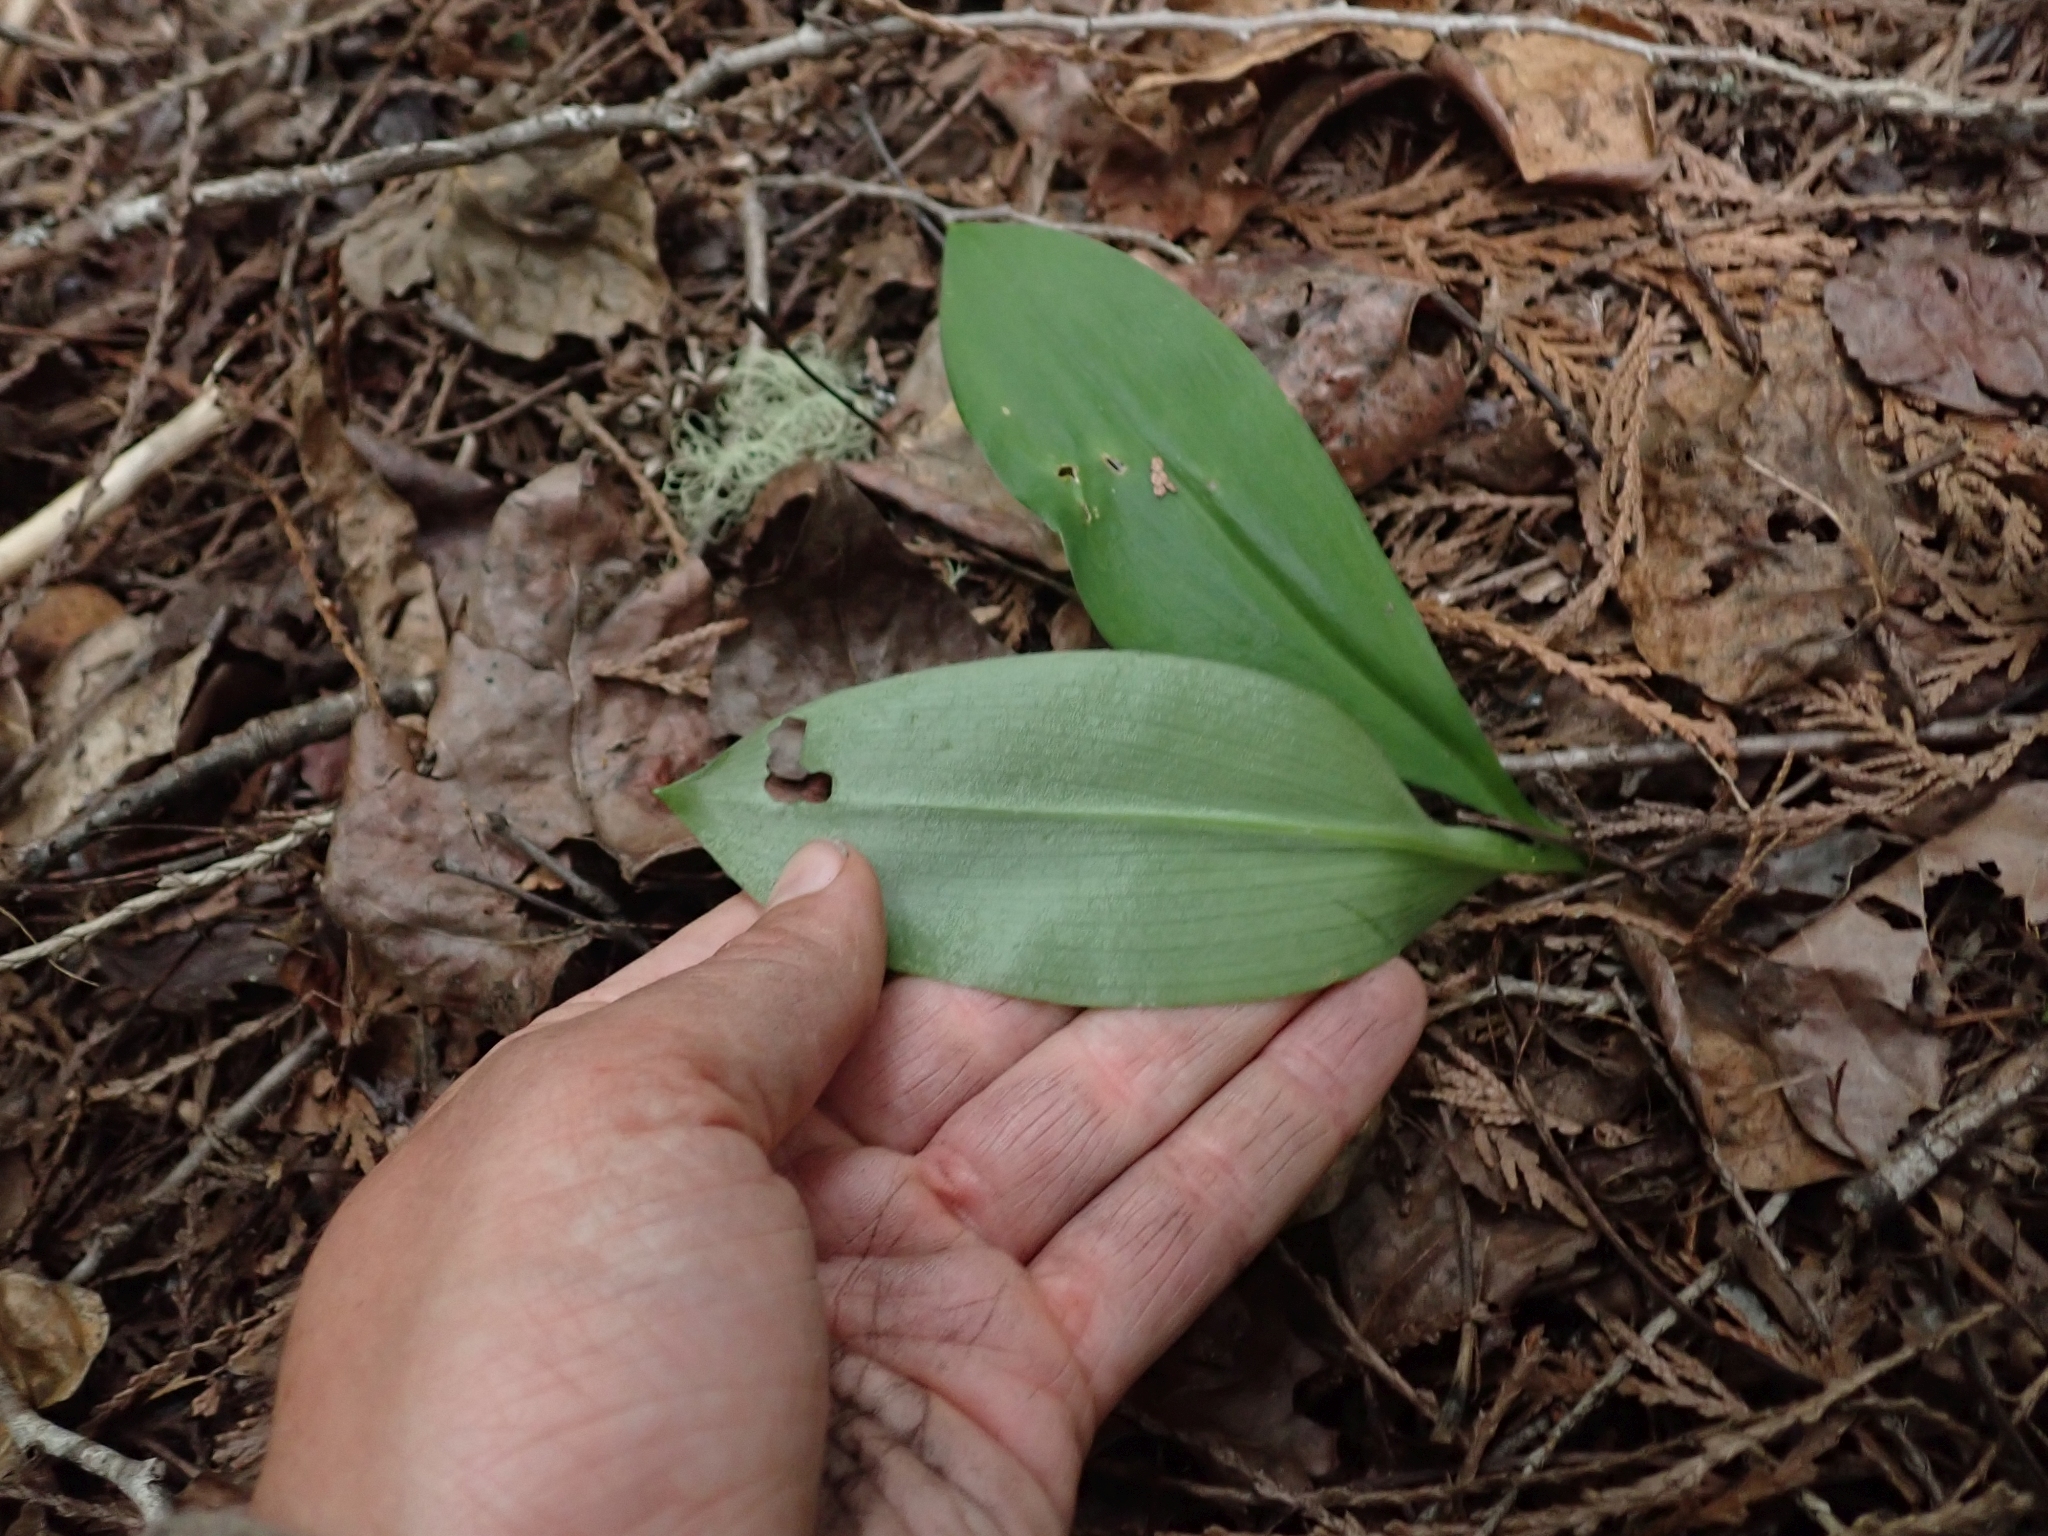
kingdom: Plantae
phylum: Tracheophyta
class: Liliopsida
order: Liliales
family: Liliaceae
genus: Clintonia
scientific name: Clintonia uniflora
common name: Queen's cup
